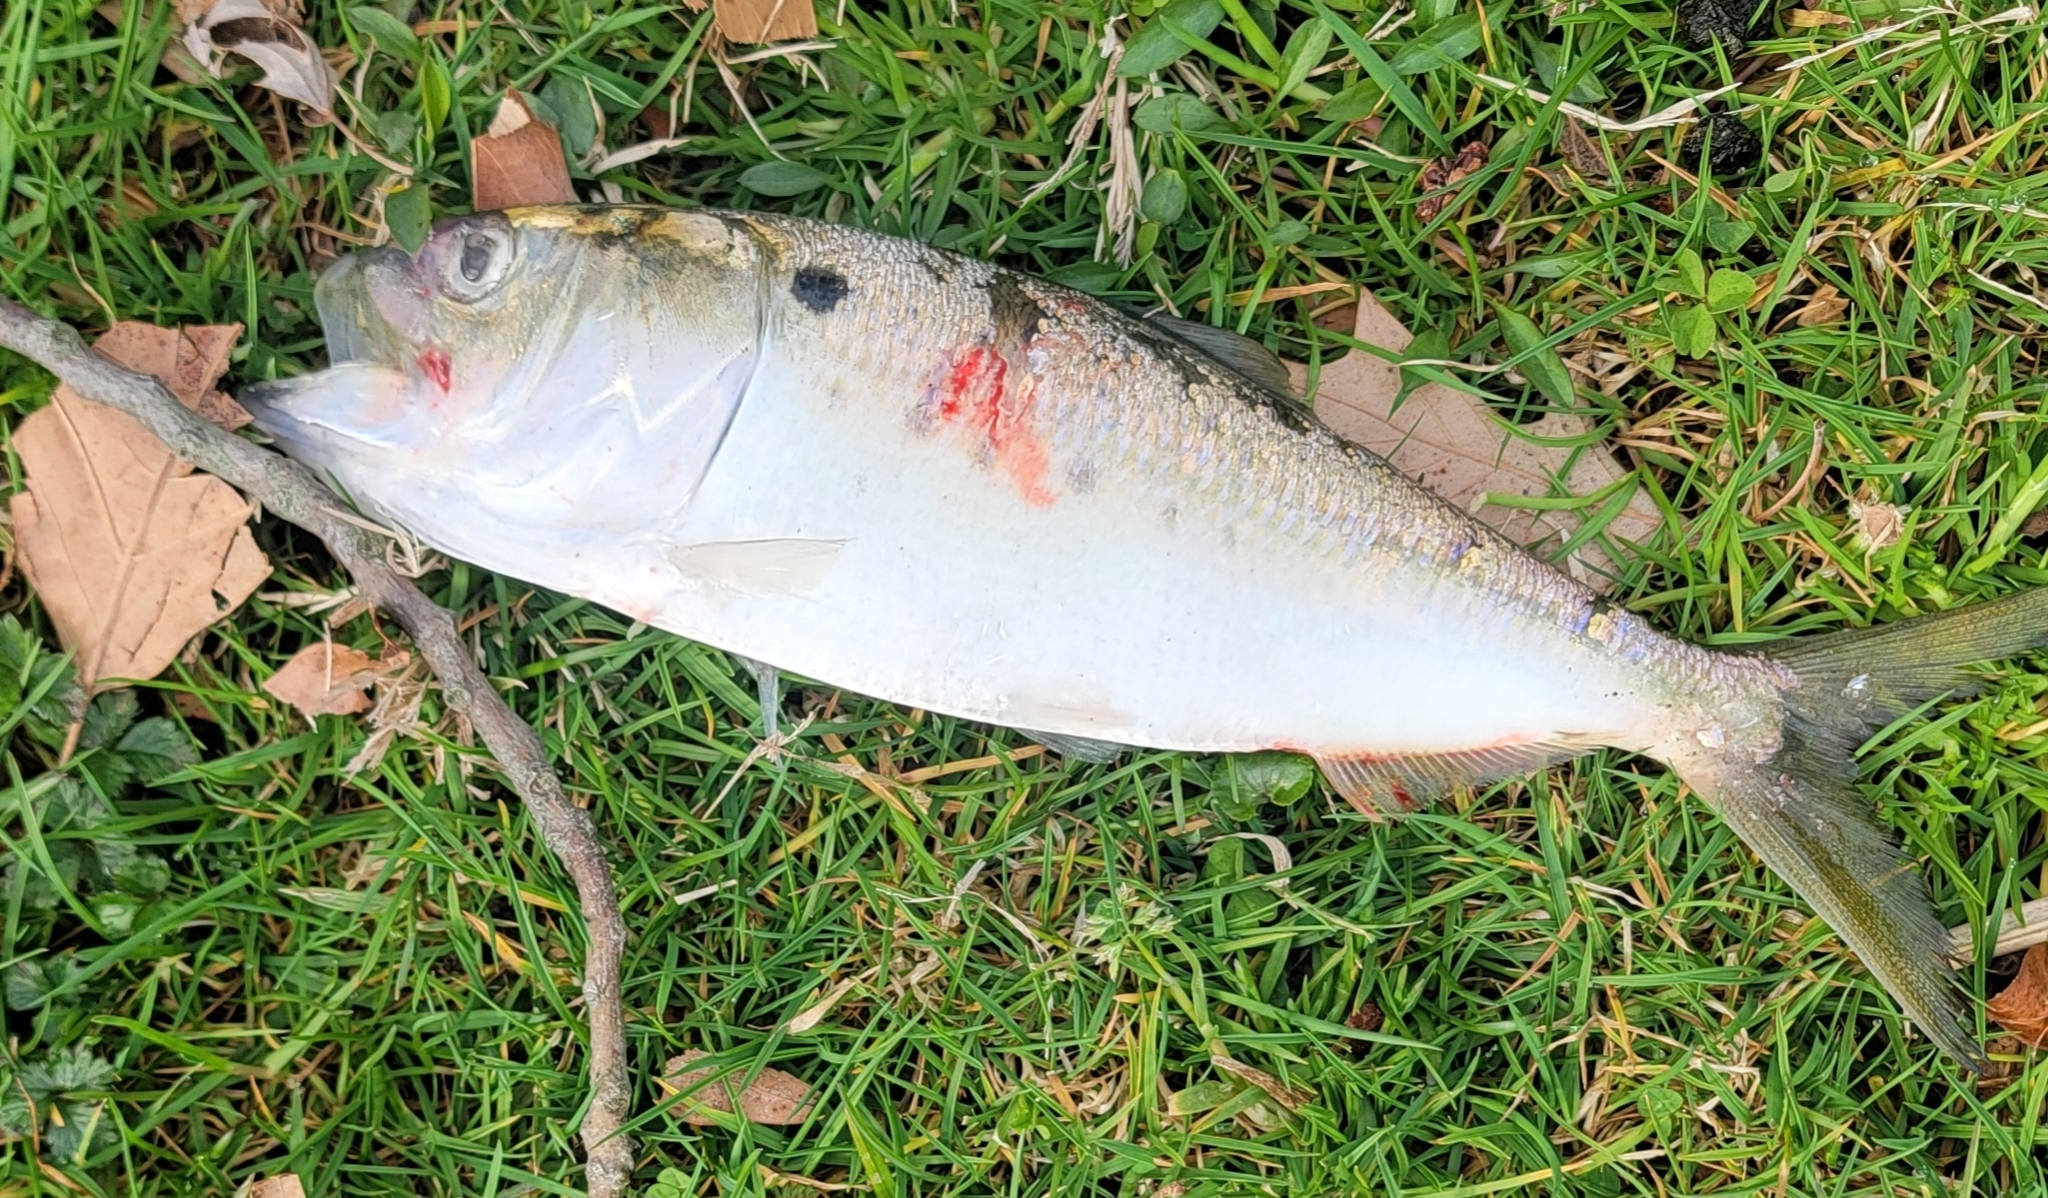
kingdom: Animalia
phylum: Chordata
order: Clupeiformes
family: Clupeidae
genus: Brevoortia
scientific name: Brevoortia tyrannus
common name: Atlantic menhaden
